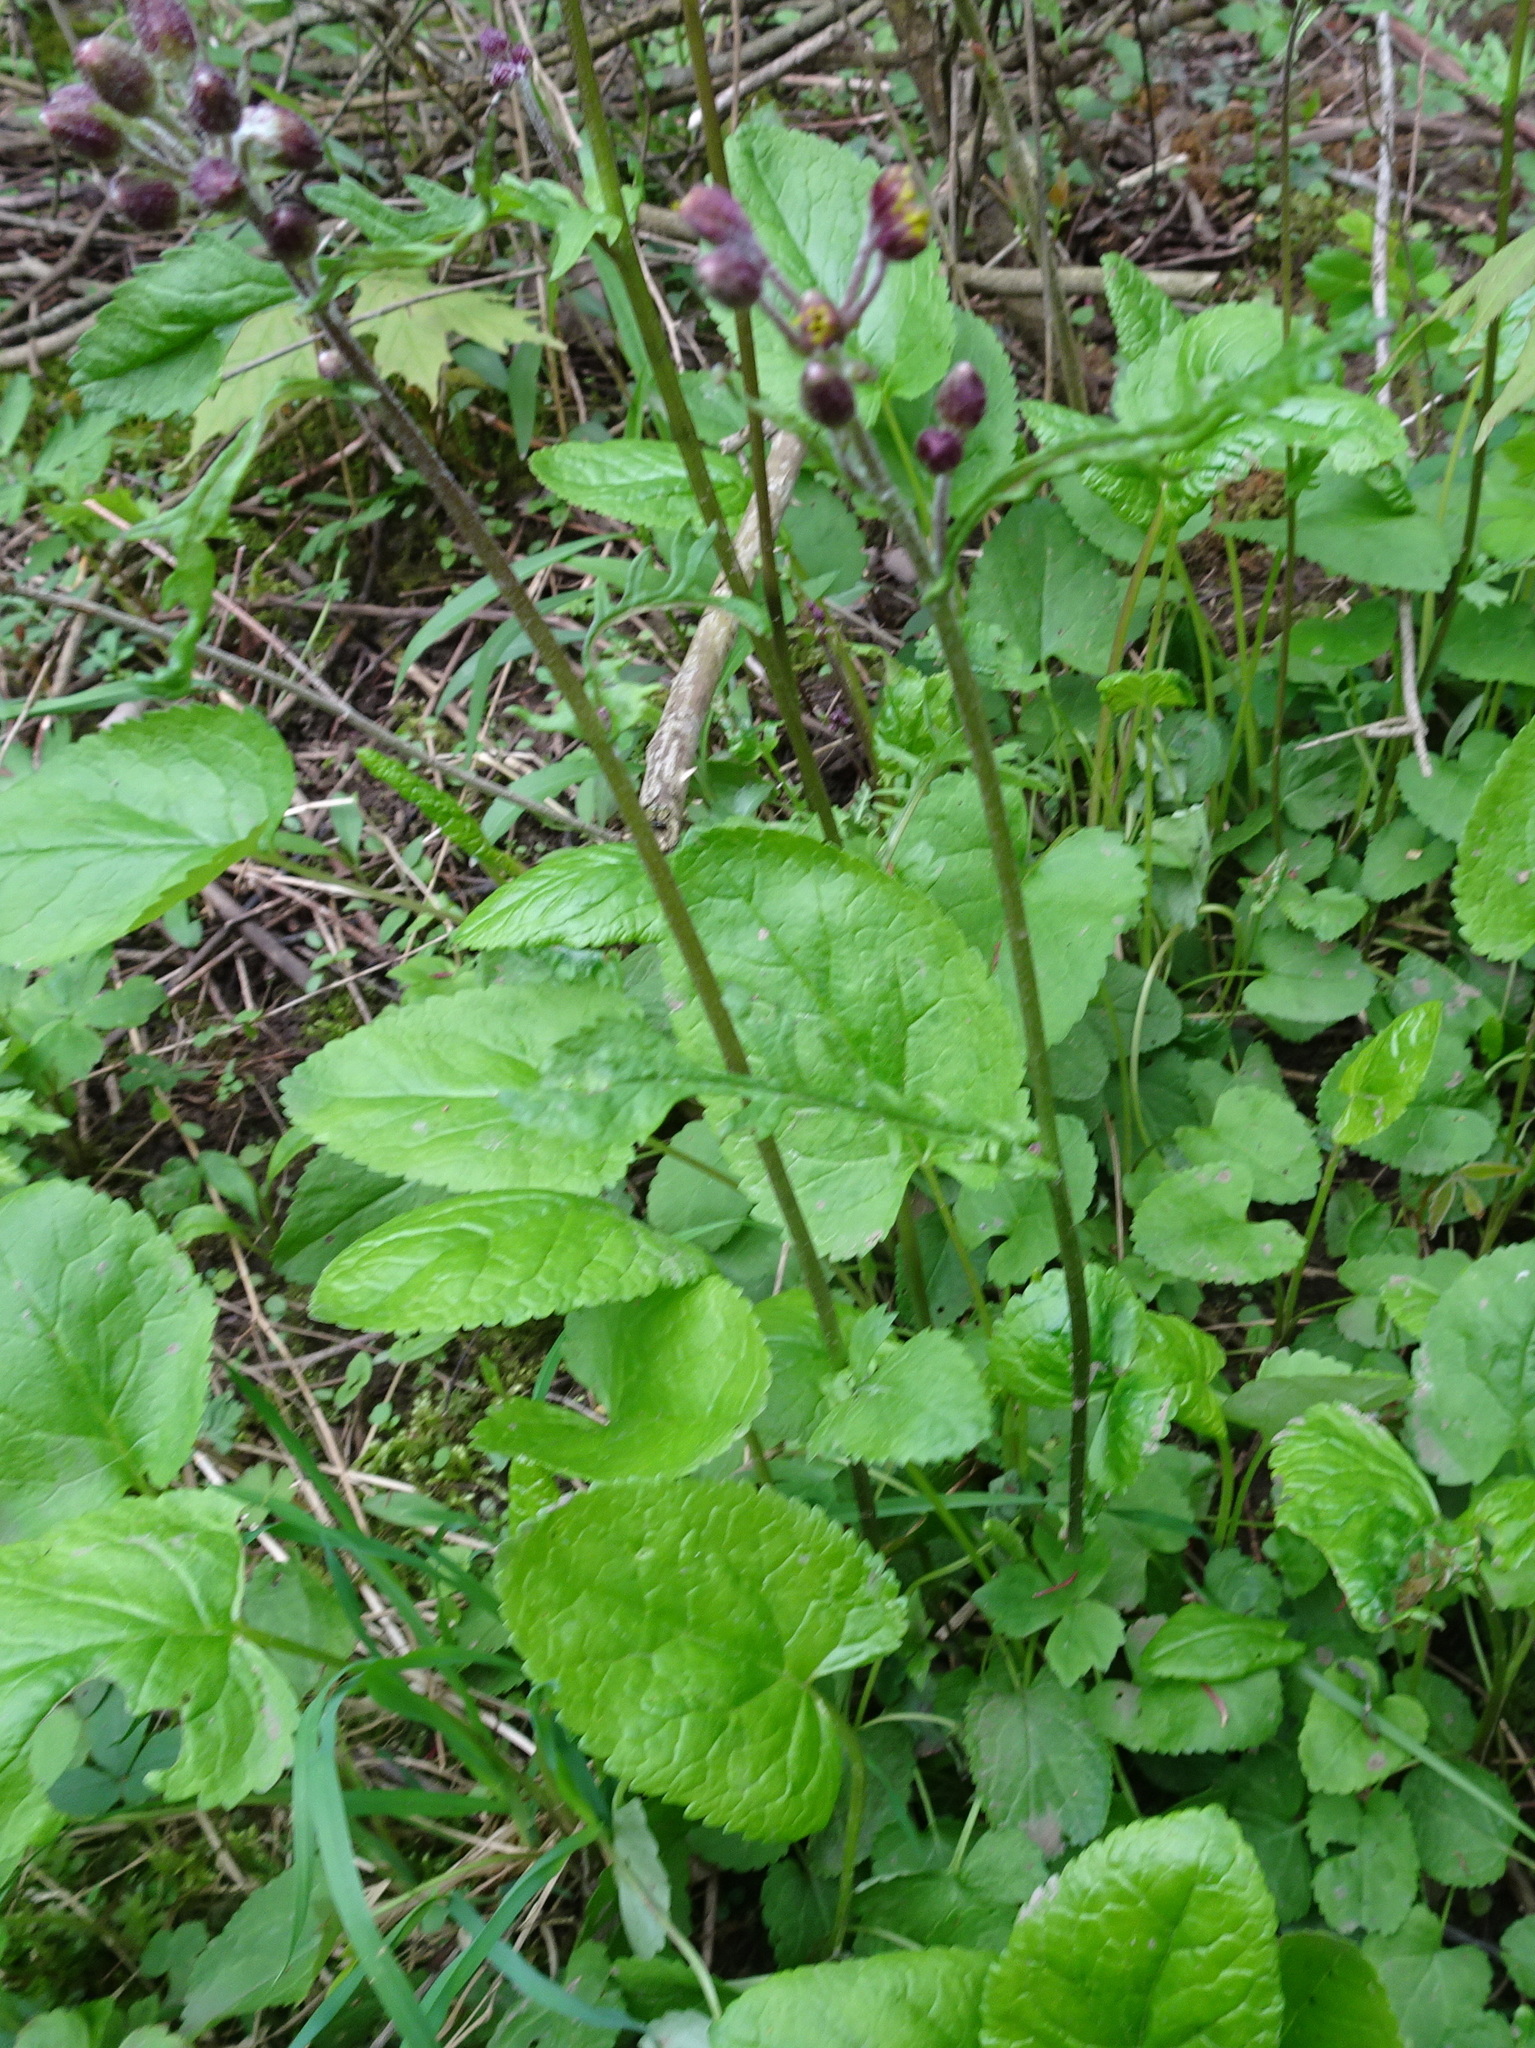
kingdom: Plantae
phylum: Tracheophyta
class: Magnoliopsida
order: Asterales
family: Asteraceae
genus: Packera
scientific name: Packera aurea
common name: Golden groundsel
